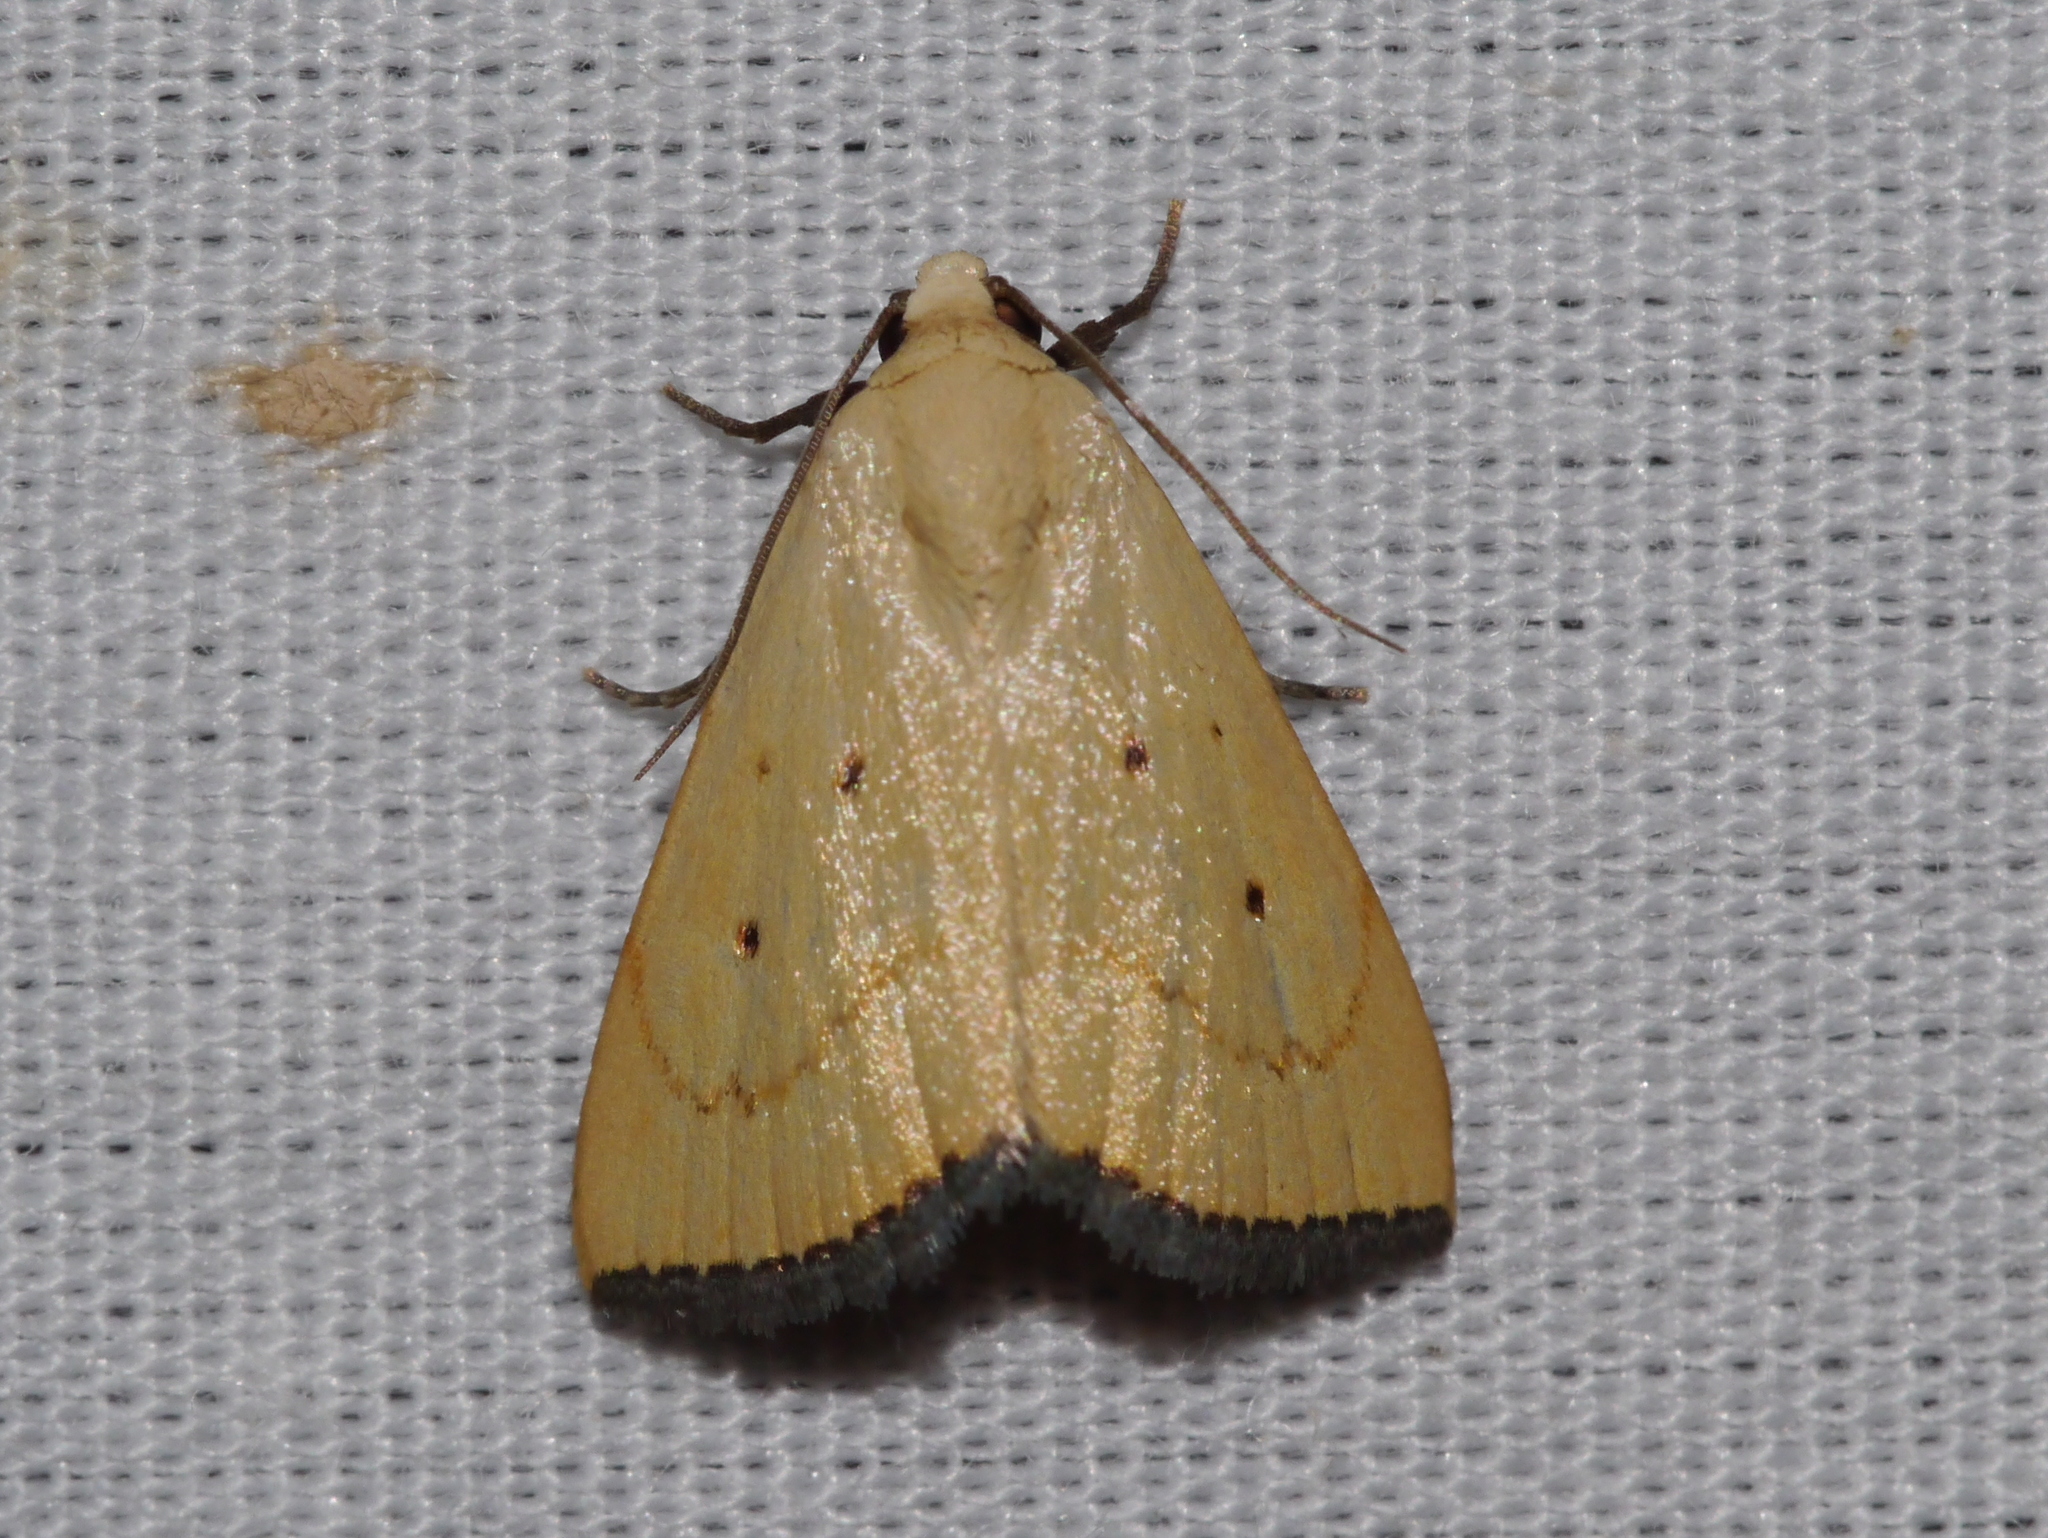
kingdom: Animalia
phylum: Arthropoda
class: Insecta
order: Lepidoptera
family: Noctuidae
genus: Marimatha
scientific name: Marimatha quadrata
